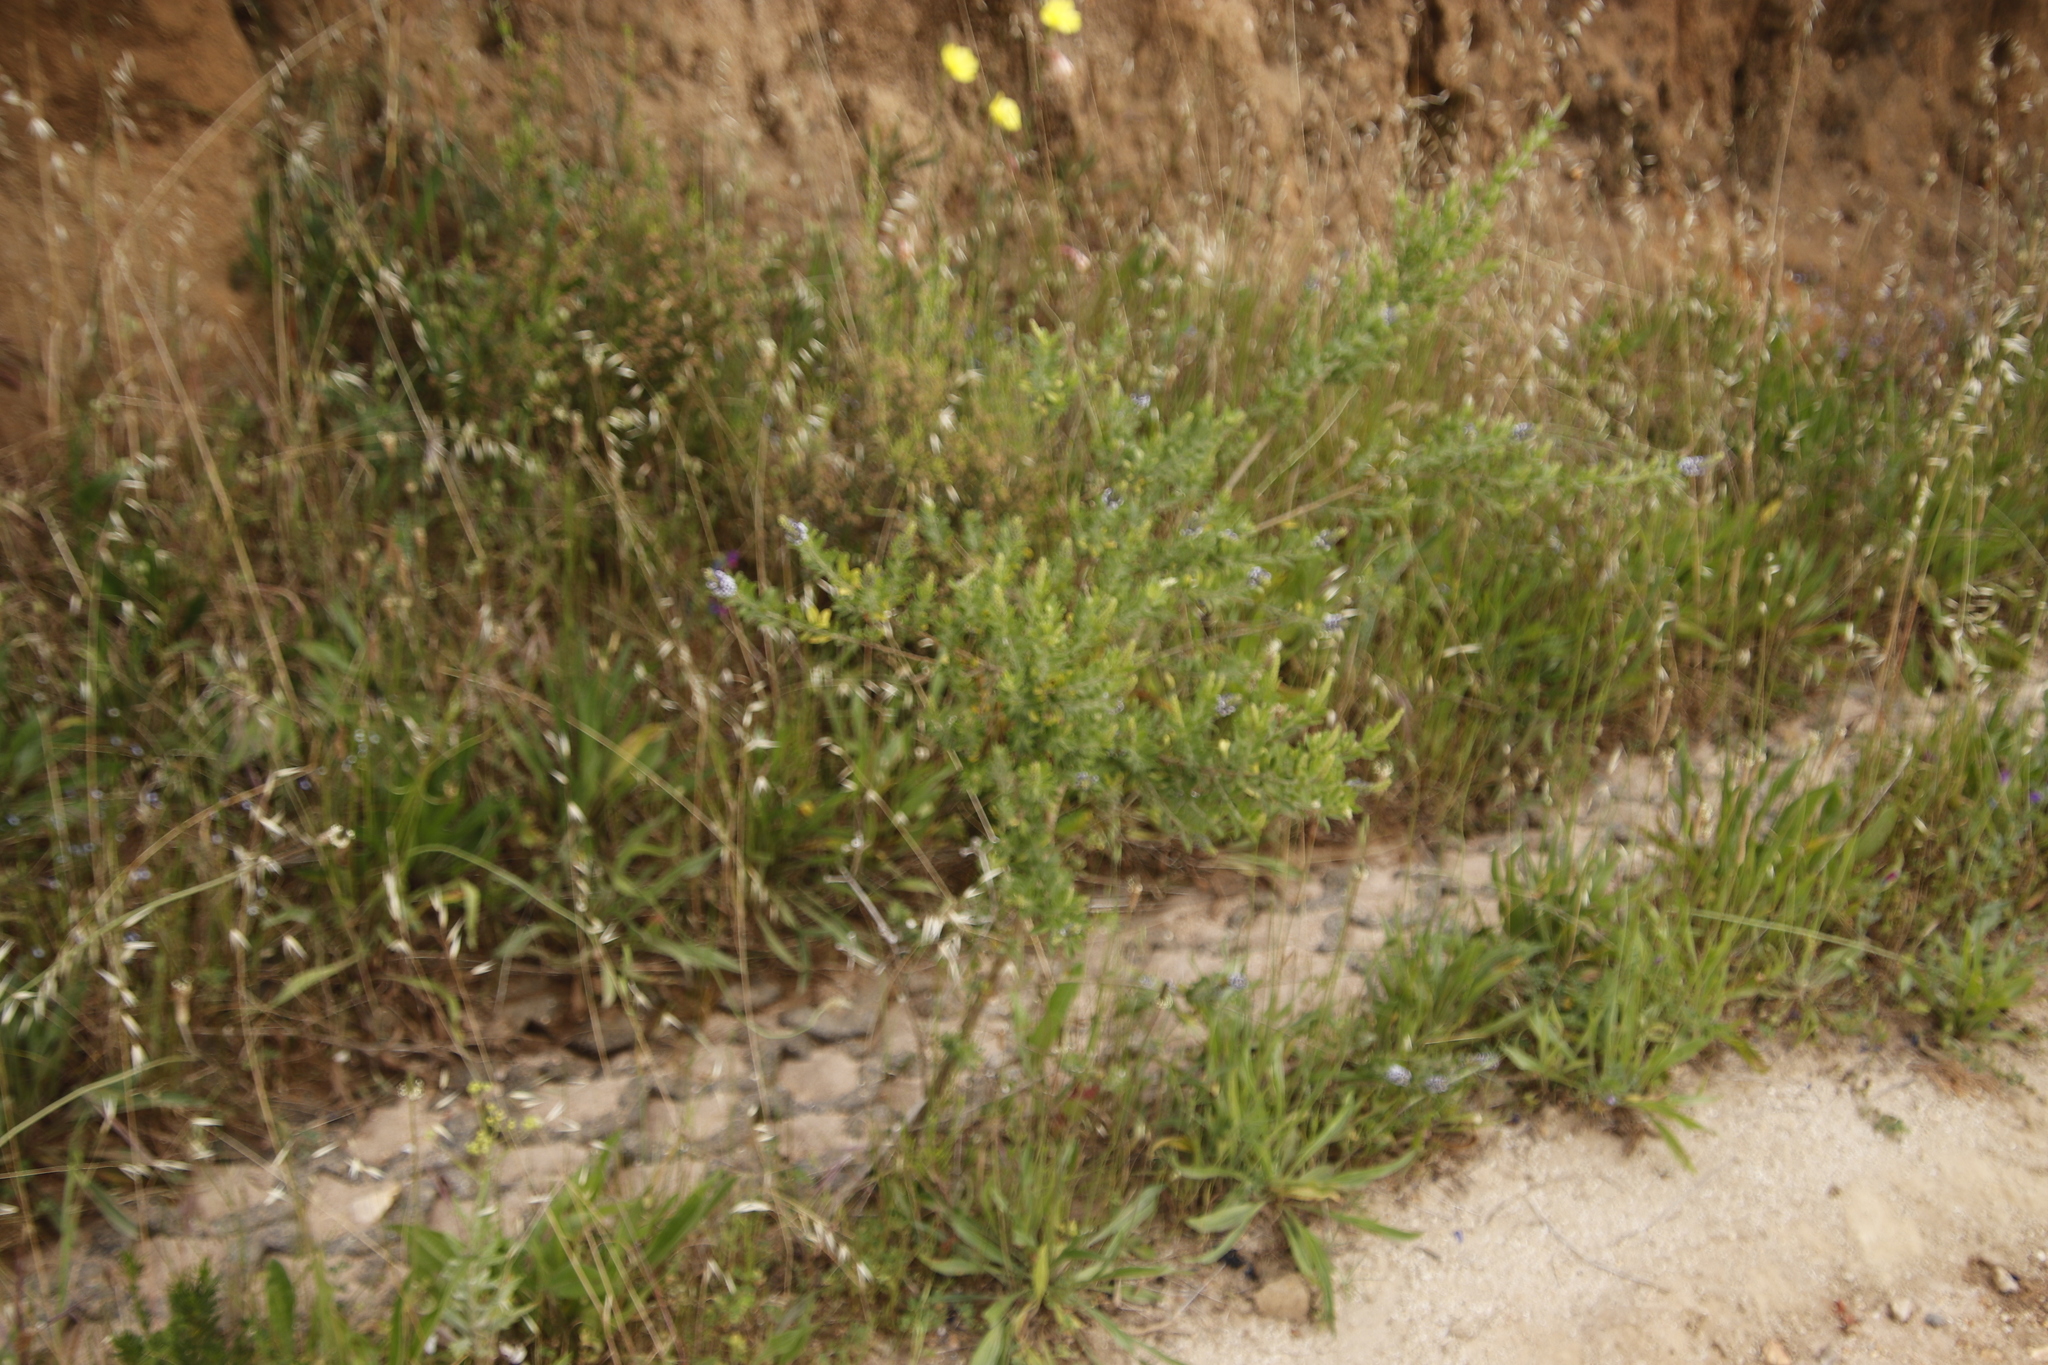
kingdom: Plantae
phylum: Tracheophyta
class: Magnoliopsida
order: Fabales
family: Fabaceae
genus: Psoralea
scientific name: Psoralea spicata
